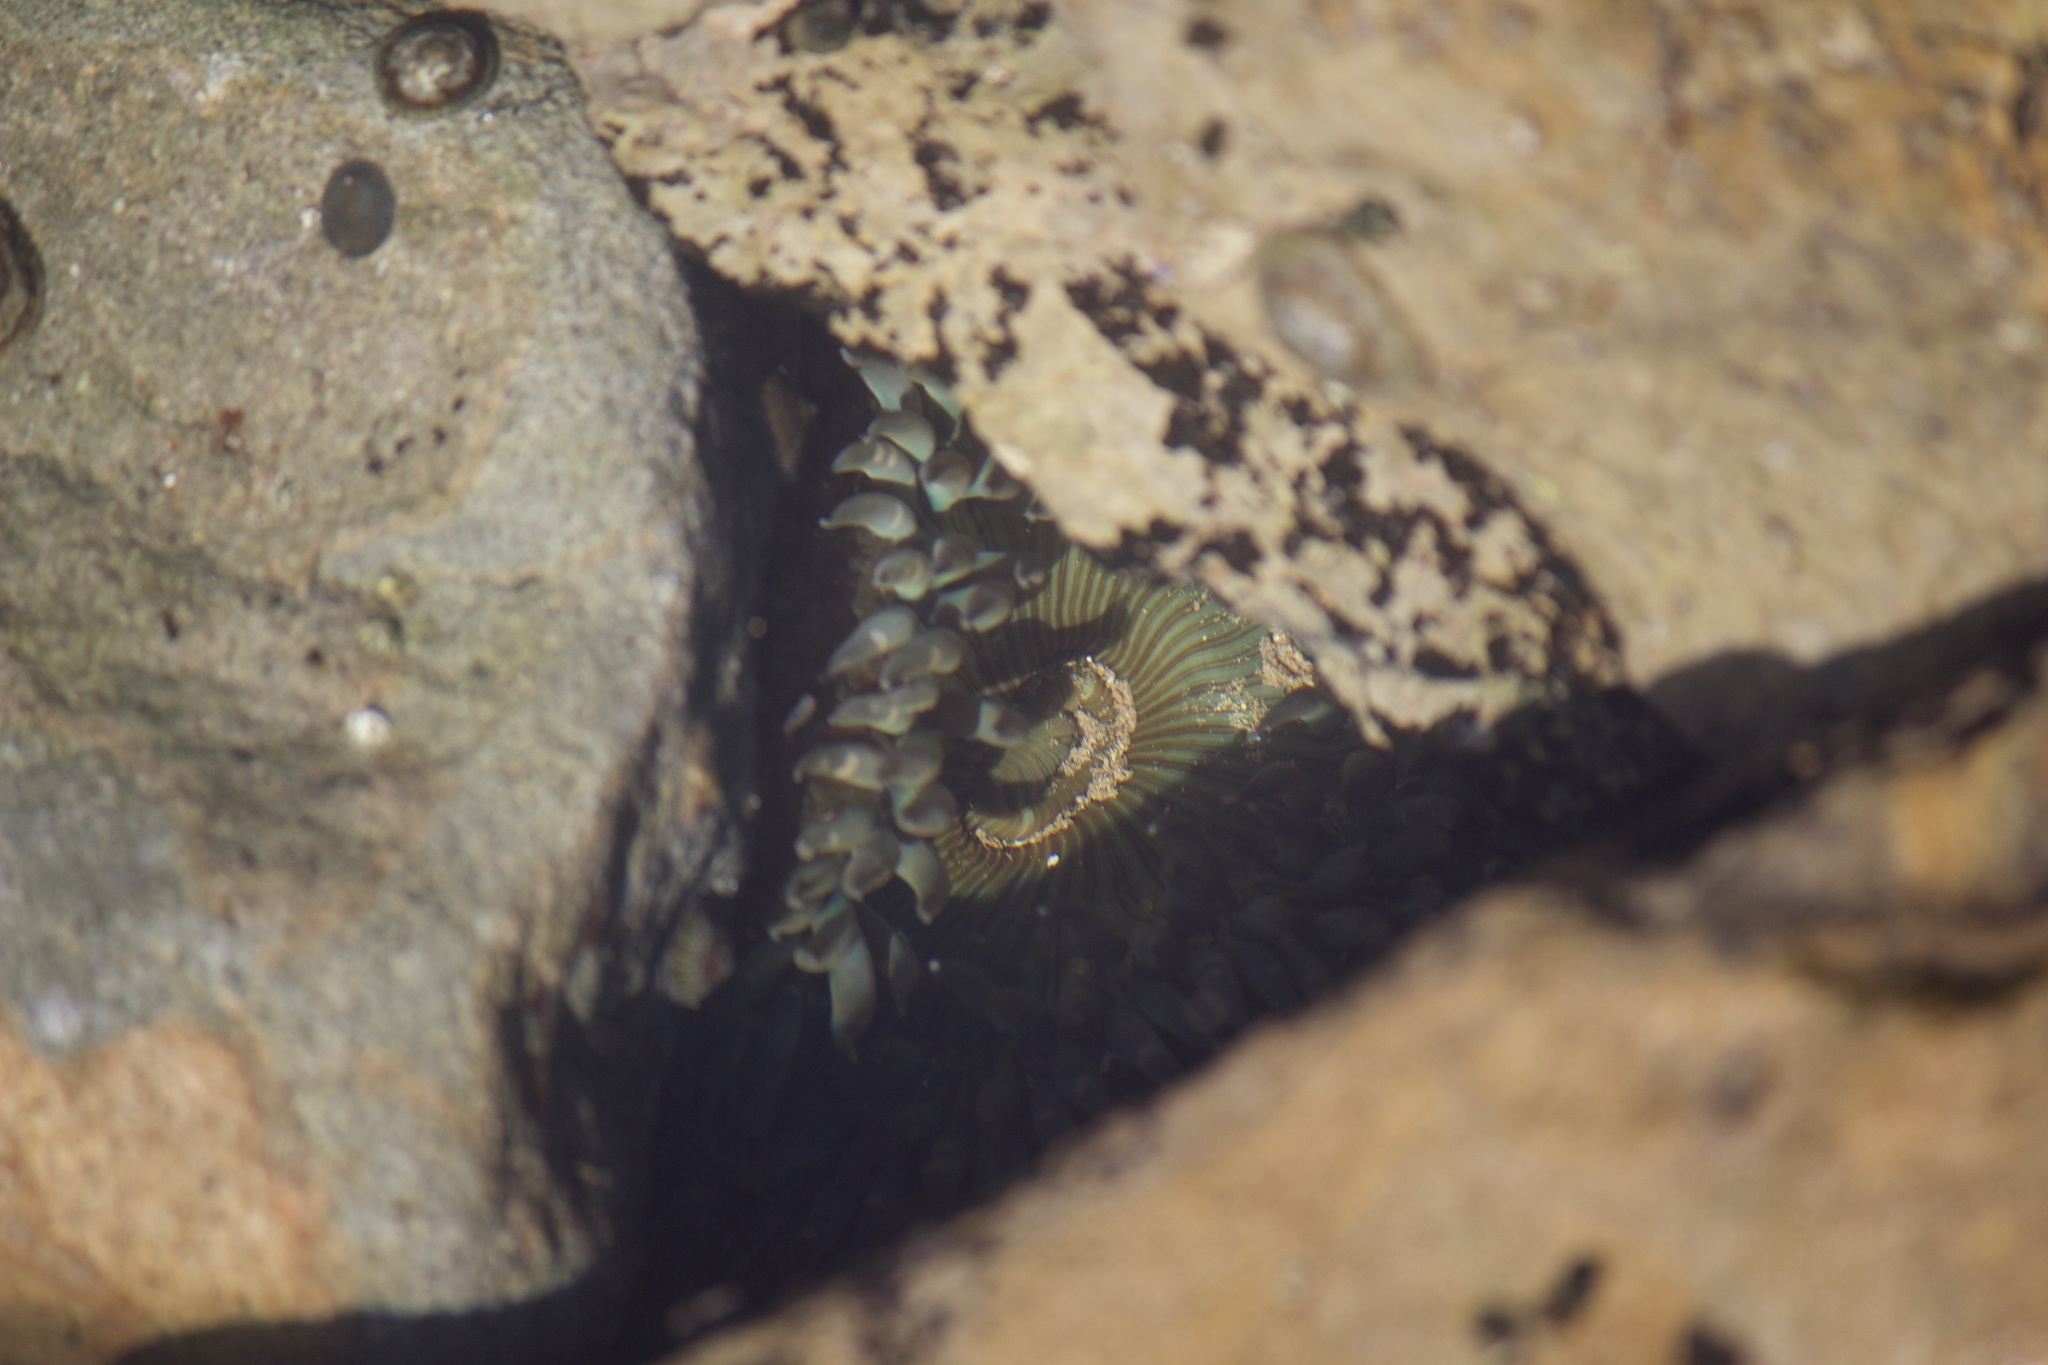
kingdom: Animalia
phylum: Cnidaria
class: Anthozoa
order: Actiniaria
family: Actiniidae
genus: Anthopleura
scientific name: Anthopleura sola
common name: Sun anemone
